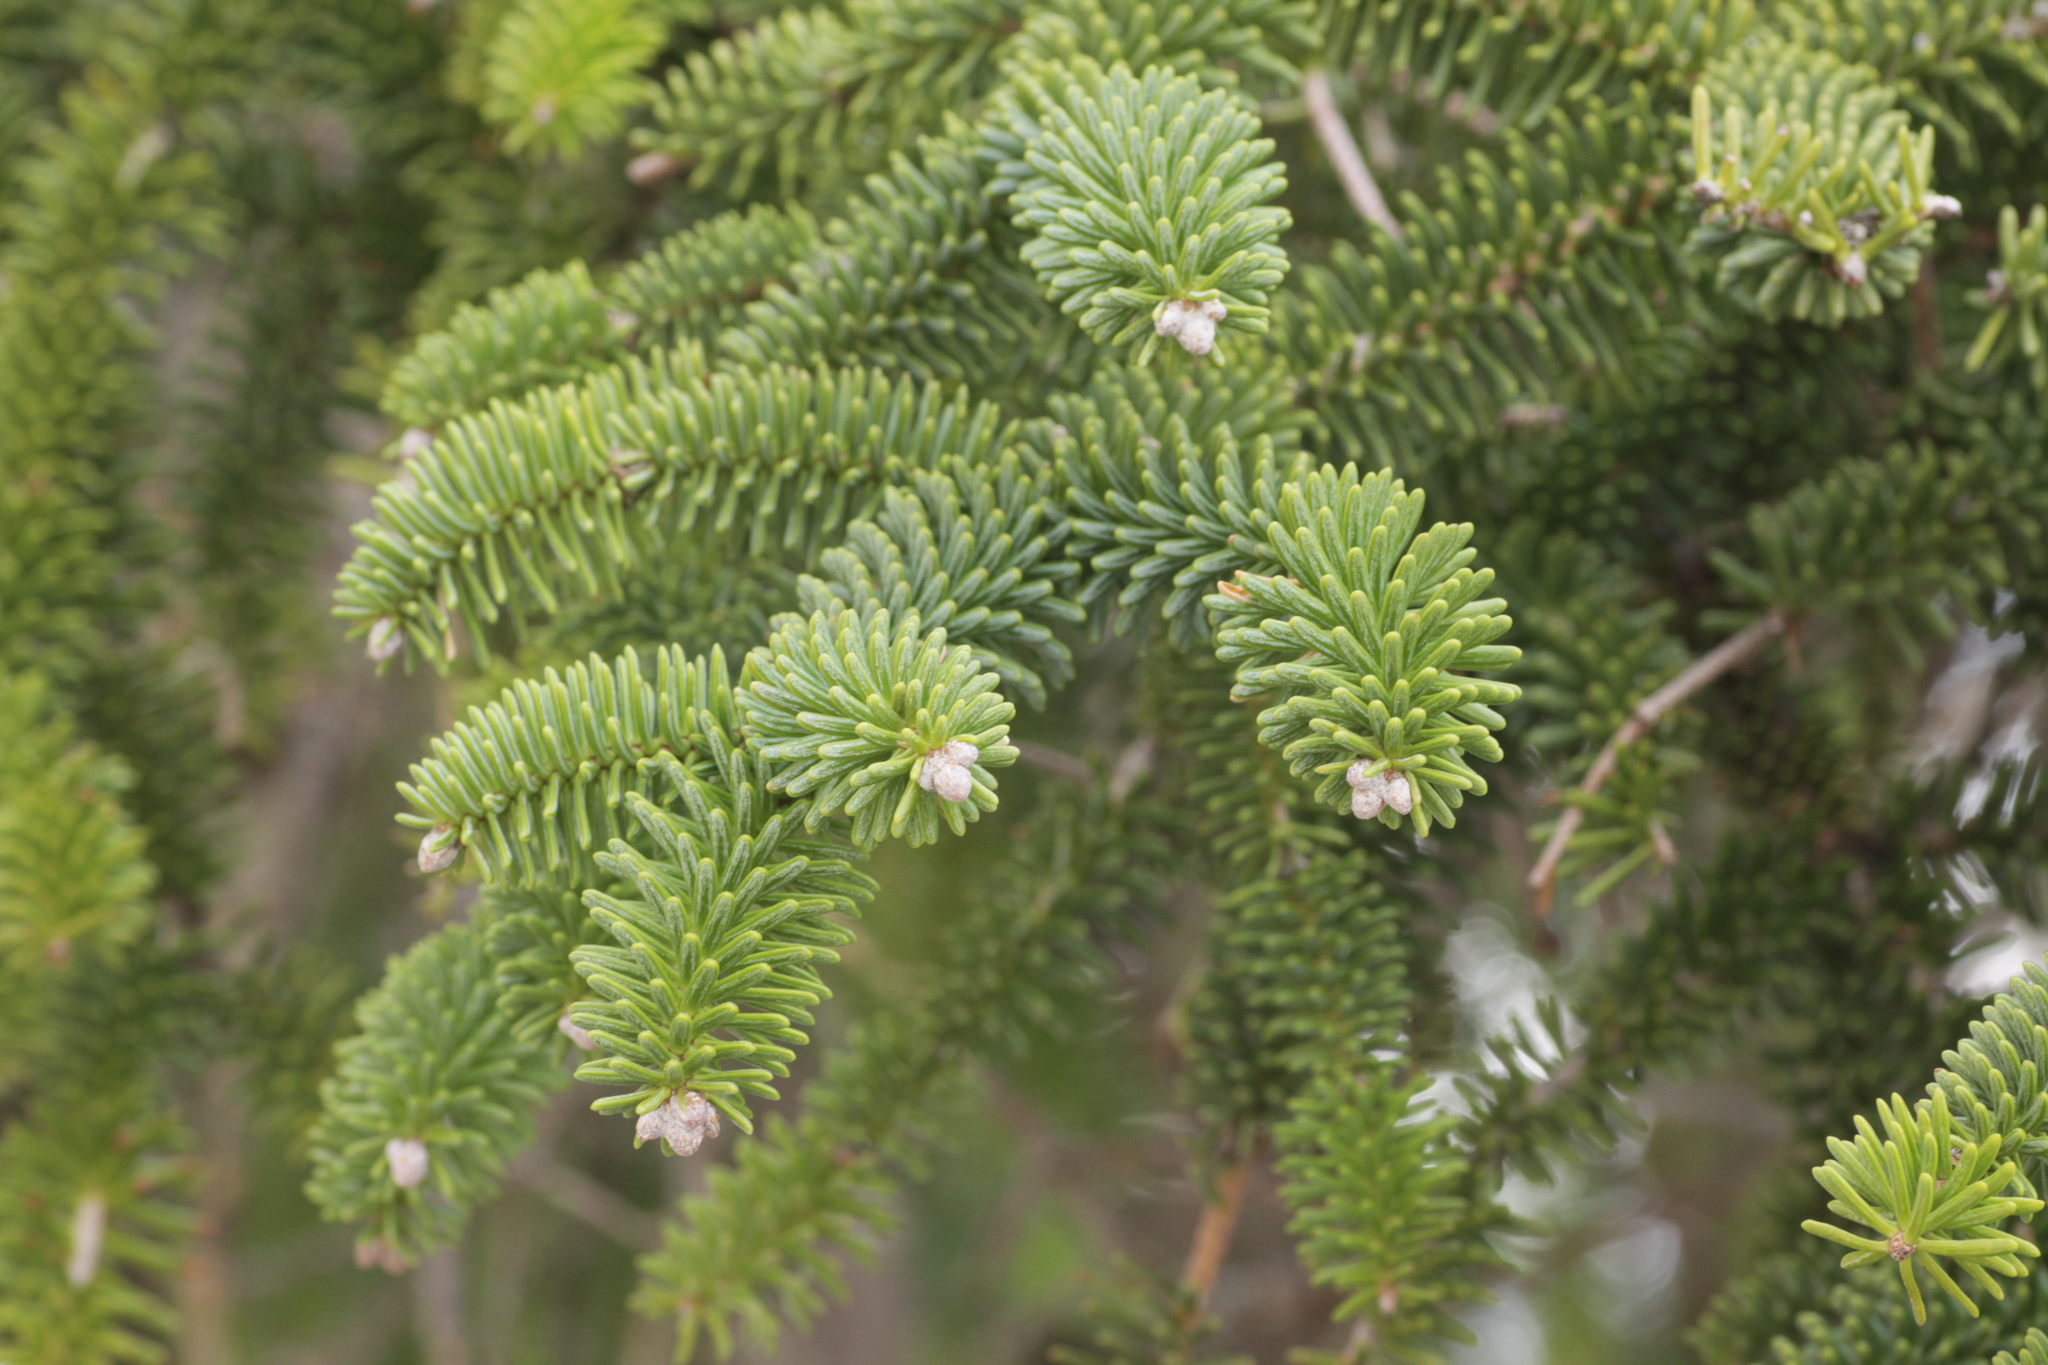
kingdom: Plantae
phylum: Tracheophyta
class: Pinopsida
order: Pinales
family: Pinaceae
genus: Abies
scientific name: Abies pinsapo
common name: Spanish fir
